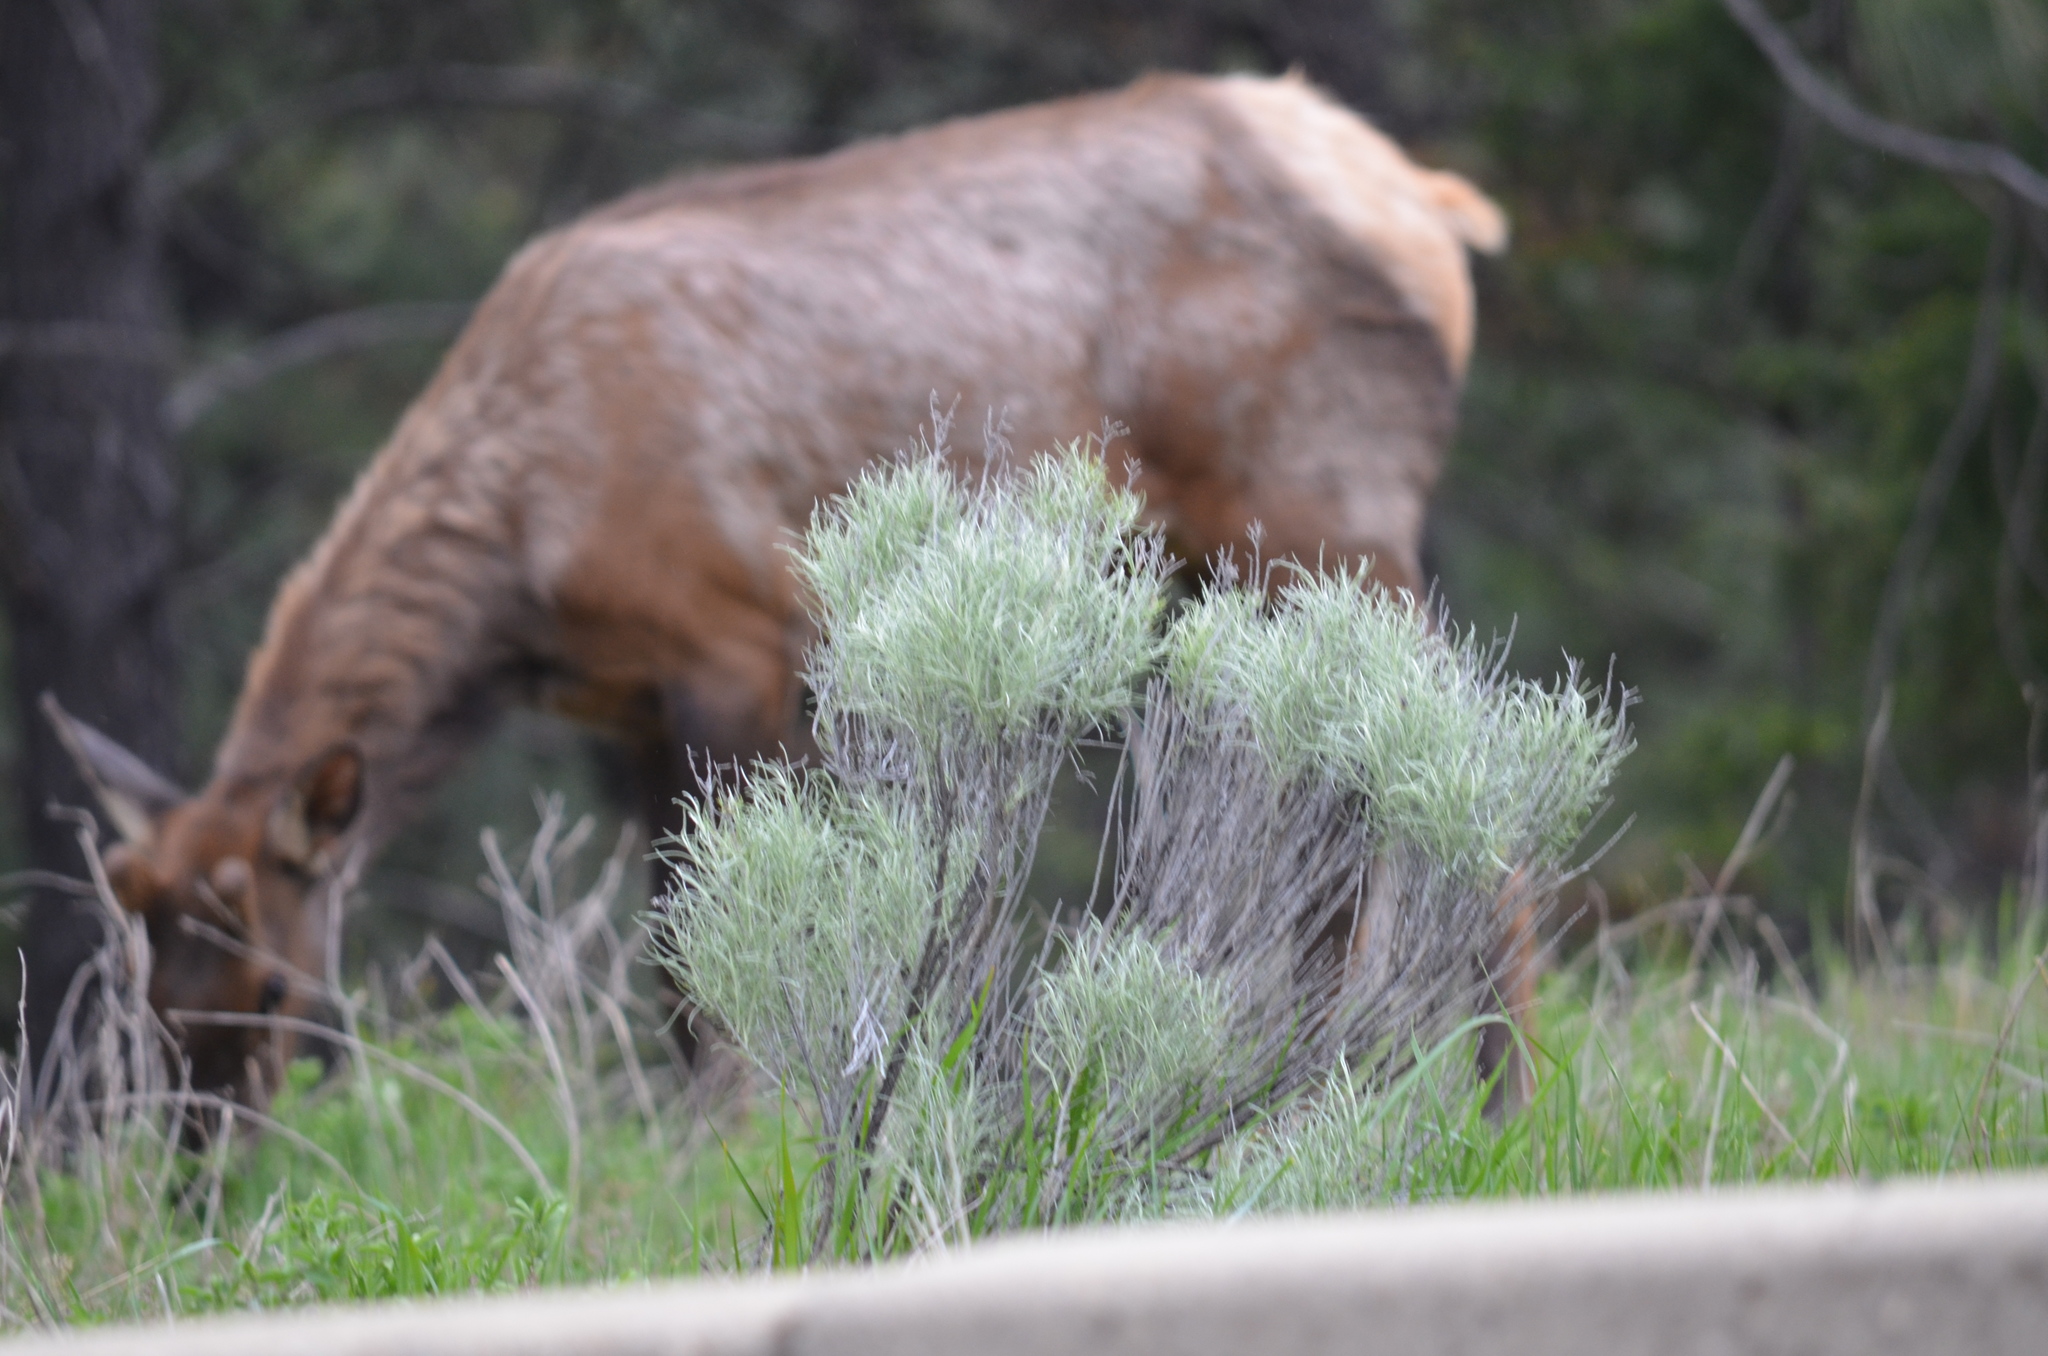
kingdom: Plantae
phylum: Tracheophyta
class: Magnoliopsida
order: Asterales
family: Asteraceae
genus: Ericameria
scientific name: Ericameria nauseosa
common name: Rubber rabbitbrush
